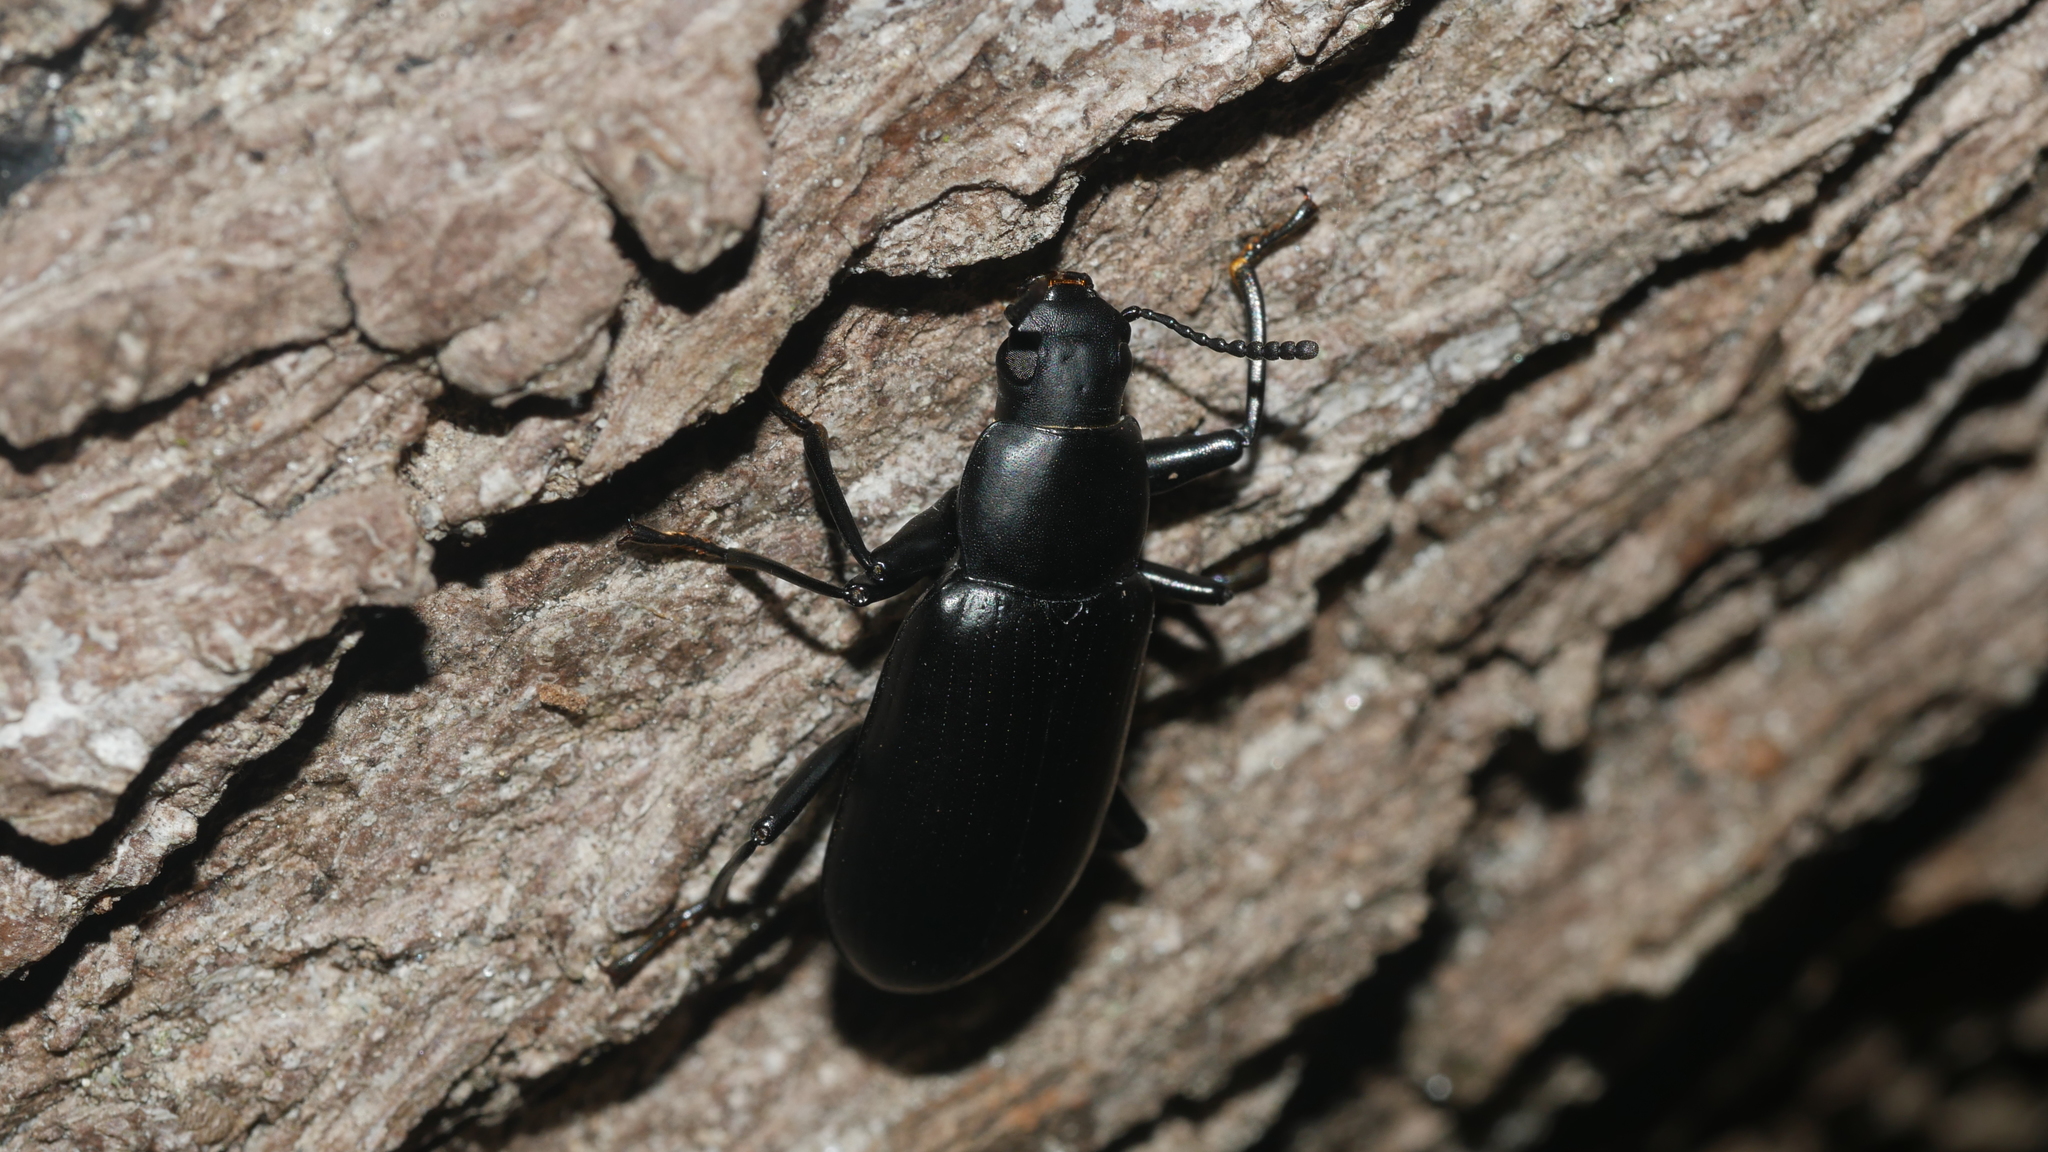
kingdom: Animalia
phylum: Arthropoda
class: Insecta
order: Coleoptera
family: Tenebrionidae
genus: Alobates
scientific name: Alobates
